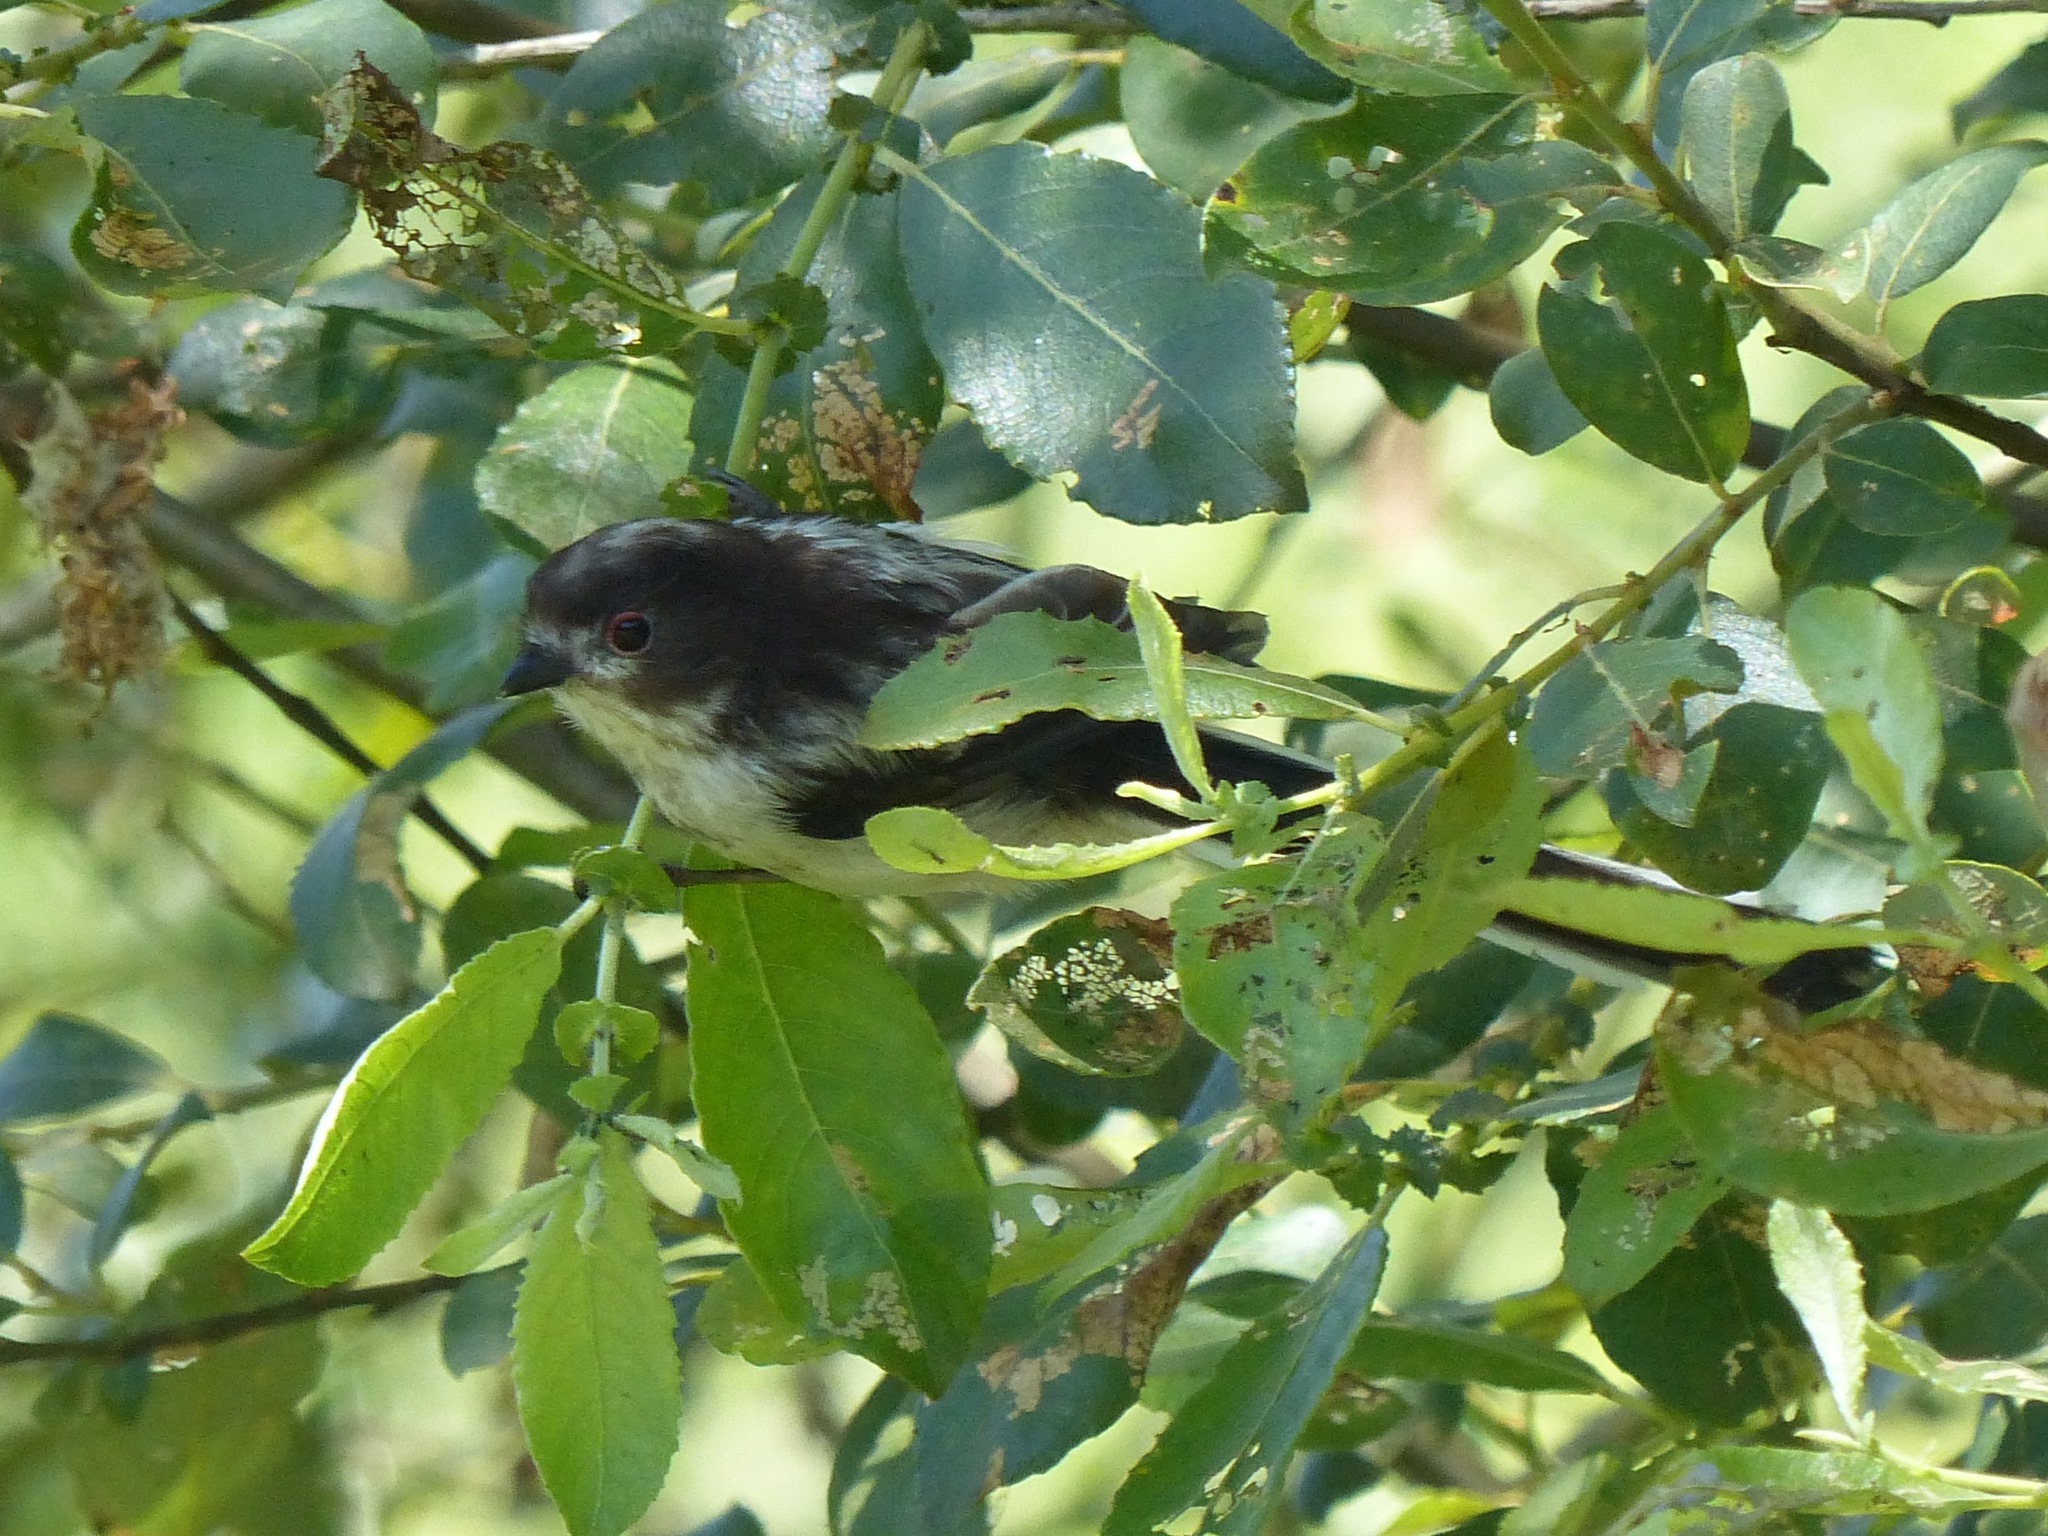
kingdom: Animalia
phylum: Chordata
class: Aves
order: Passeriformes
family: Aegithalidae
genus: Aegithalos
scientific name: Aegithalos caudatus
